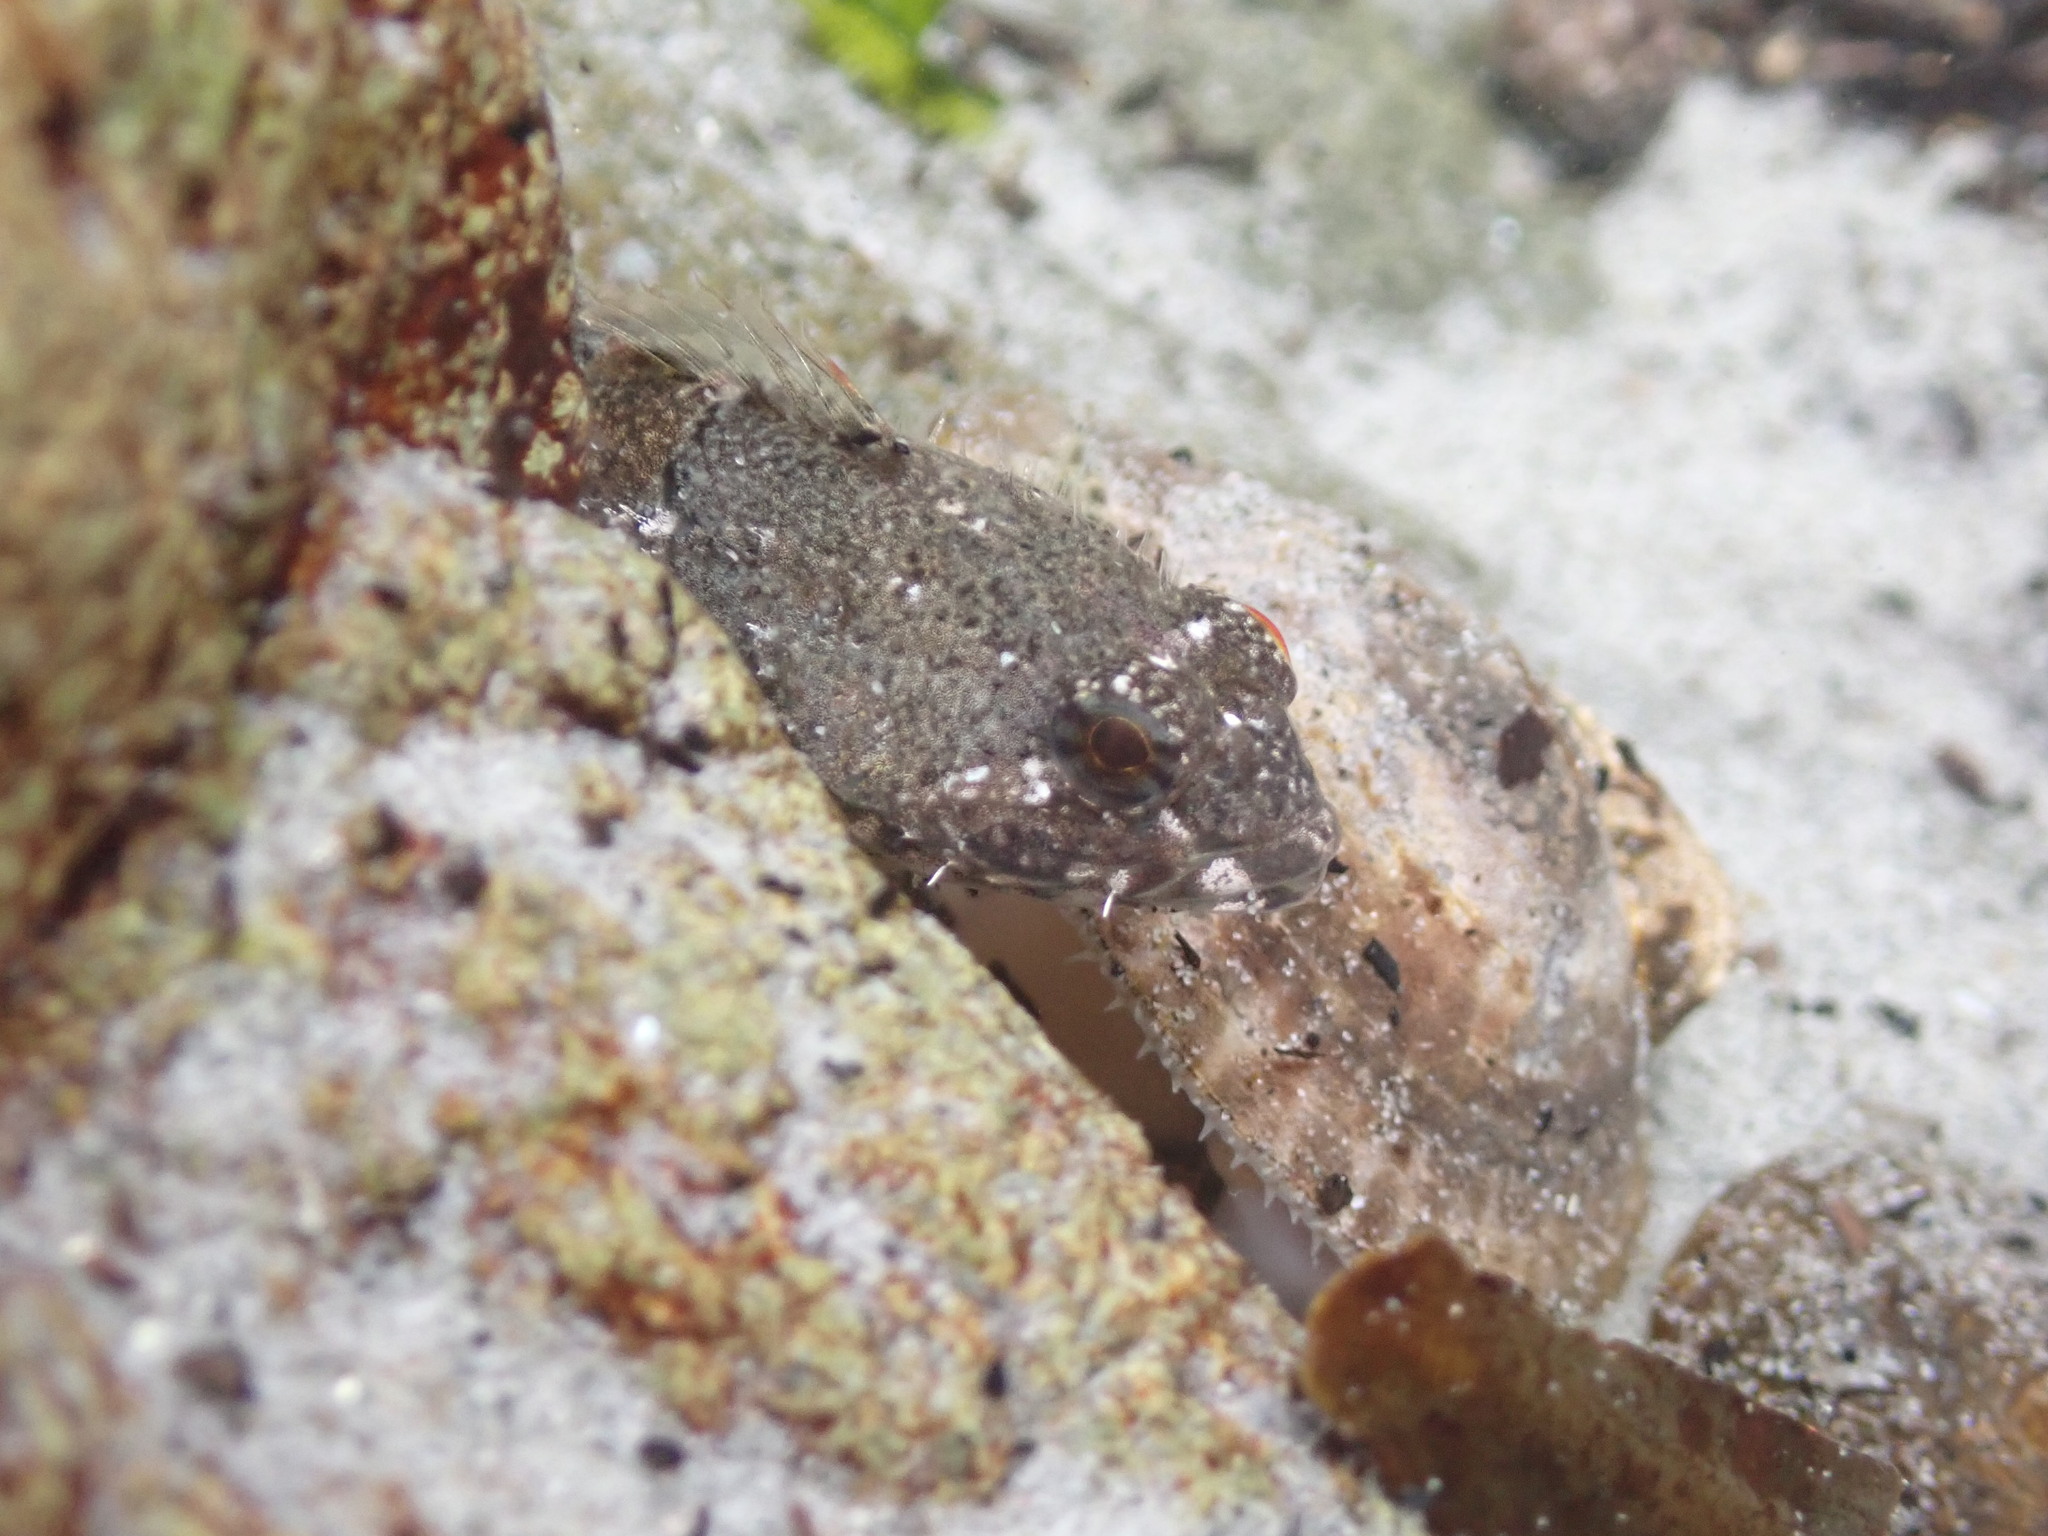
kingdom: Animalia
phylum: Chordata
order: Scorpaeniformes
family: Cottidae
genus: Oligocottus
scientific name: Oligocottus maculosus
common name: Tidepool sculpin
